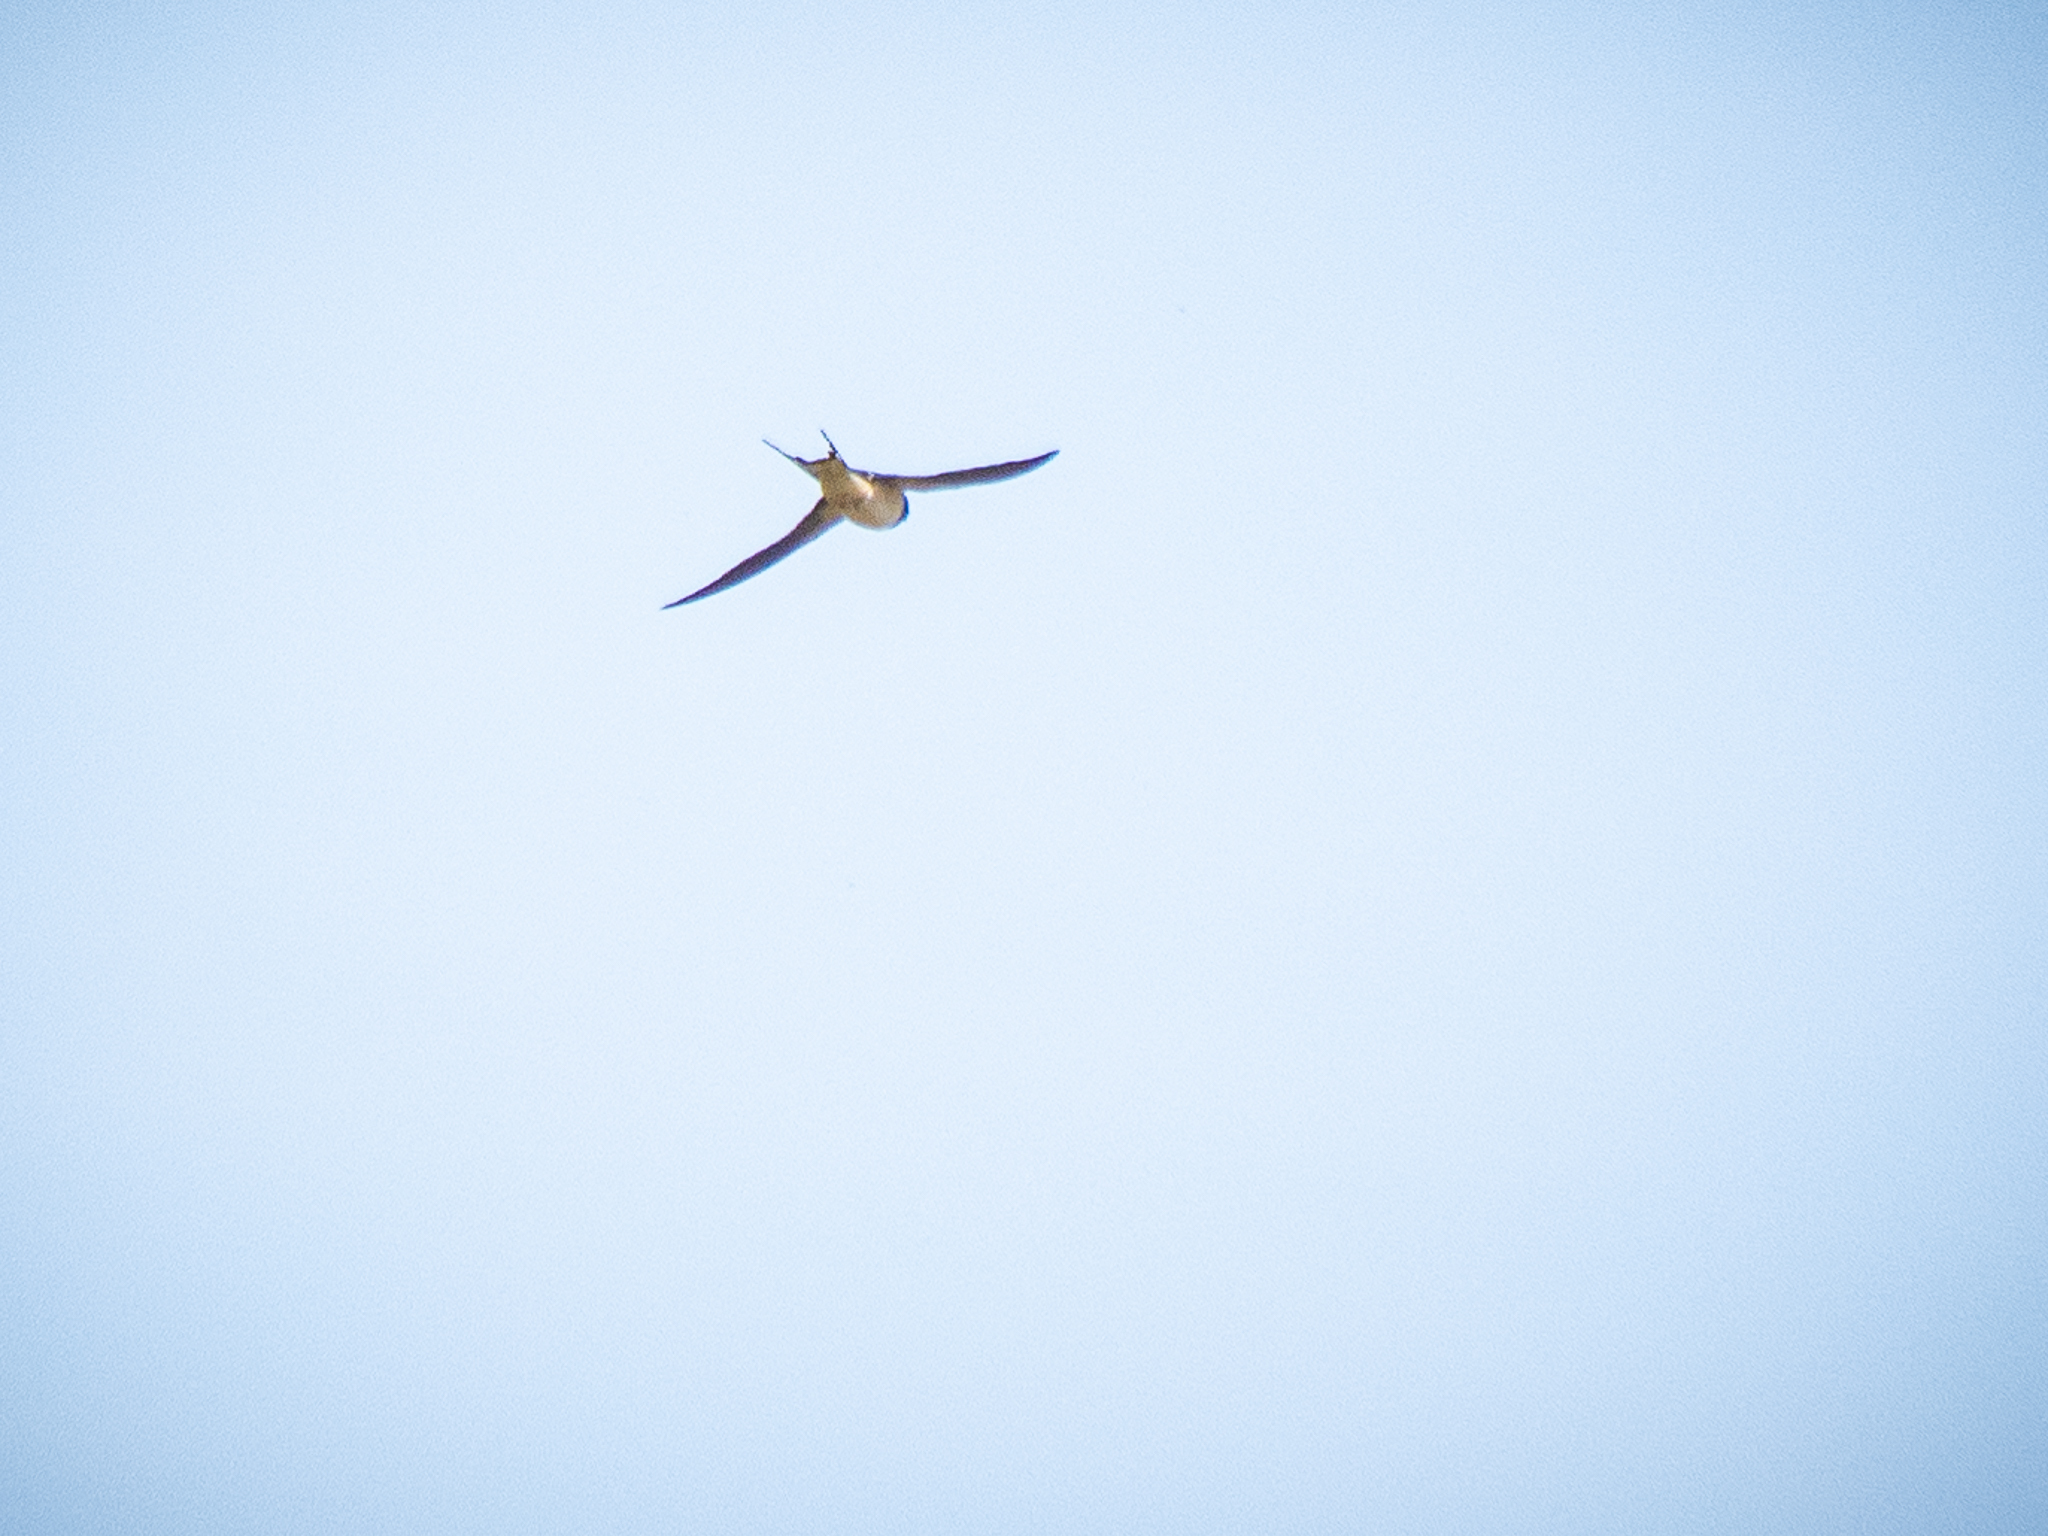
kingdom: Animalia
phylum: Chordata
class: Aves
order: Passeriformes
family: Hirundinidae
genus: Hirundo
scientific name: Hirundo rustica
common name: Barn swallow
